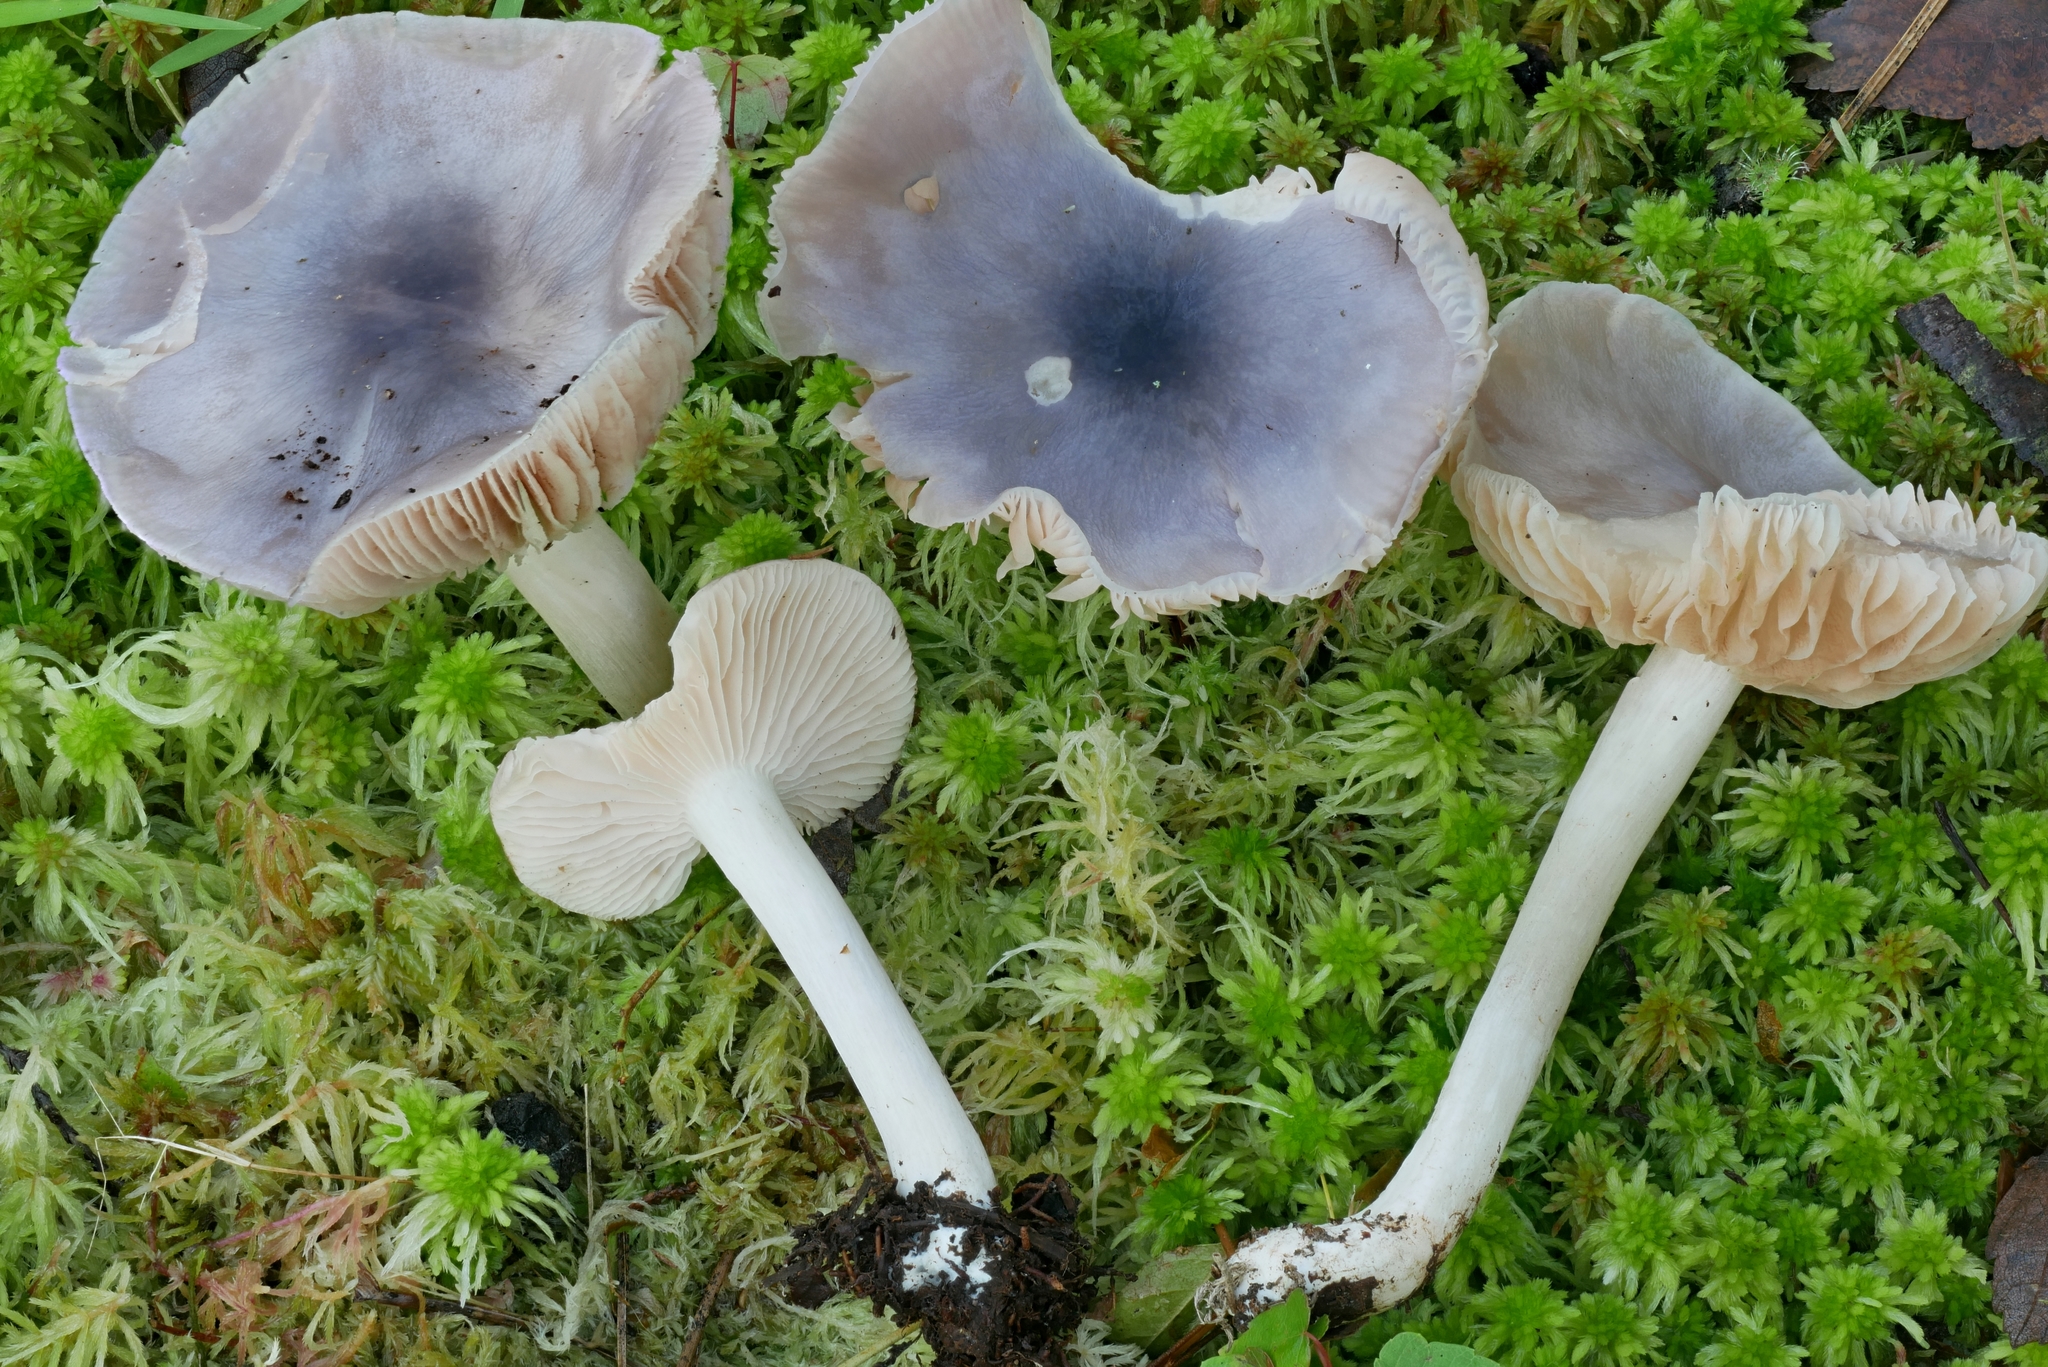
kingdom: Fungi
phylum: Basidiomycota
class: Agaricomycetes
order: Agaricales
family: Entolomataceae
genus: Entoloma
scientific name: Entoloma indigoferum
